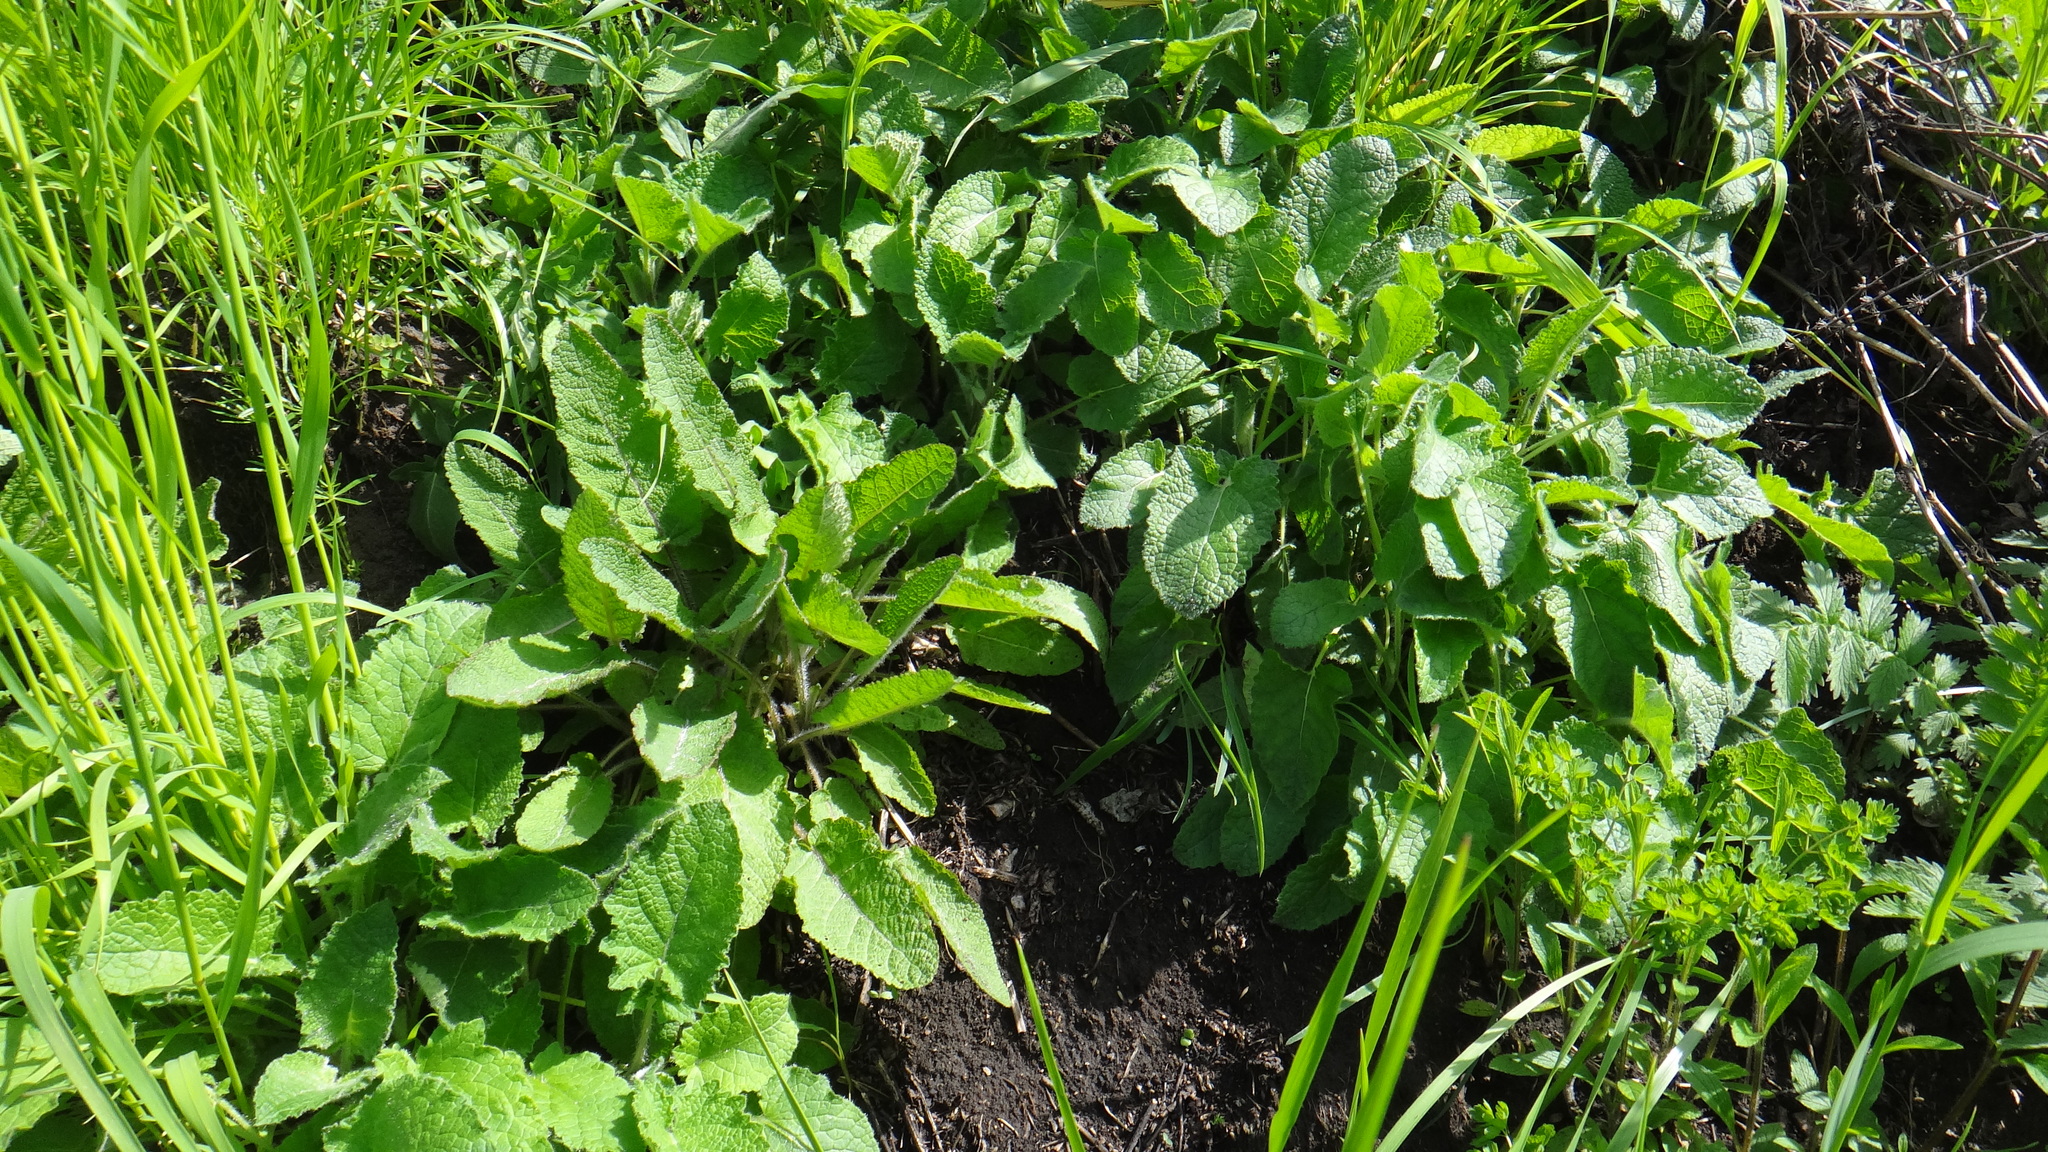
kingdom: Plantae
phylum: Tracheophyta
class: Magnoliopsida
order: Lamiales
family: Lamiaceae
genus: Salvia
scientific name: Salvia verticillata
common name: Whorled clary
